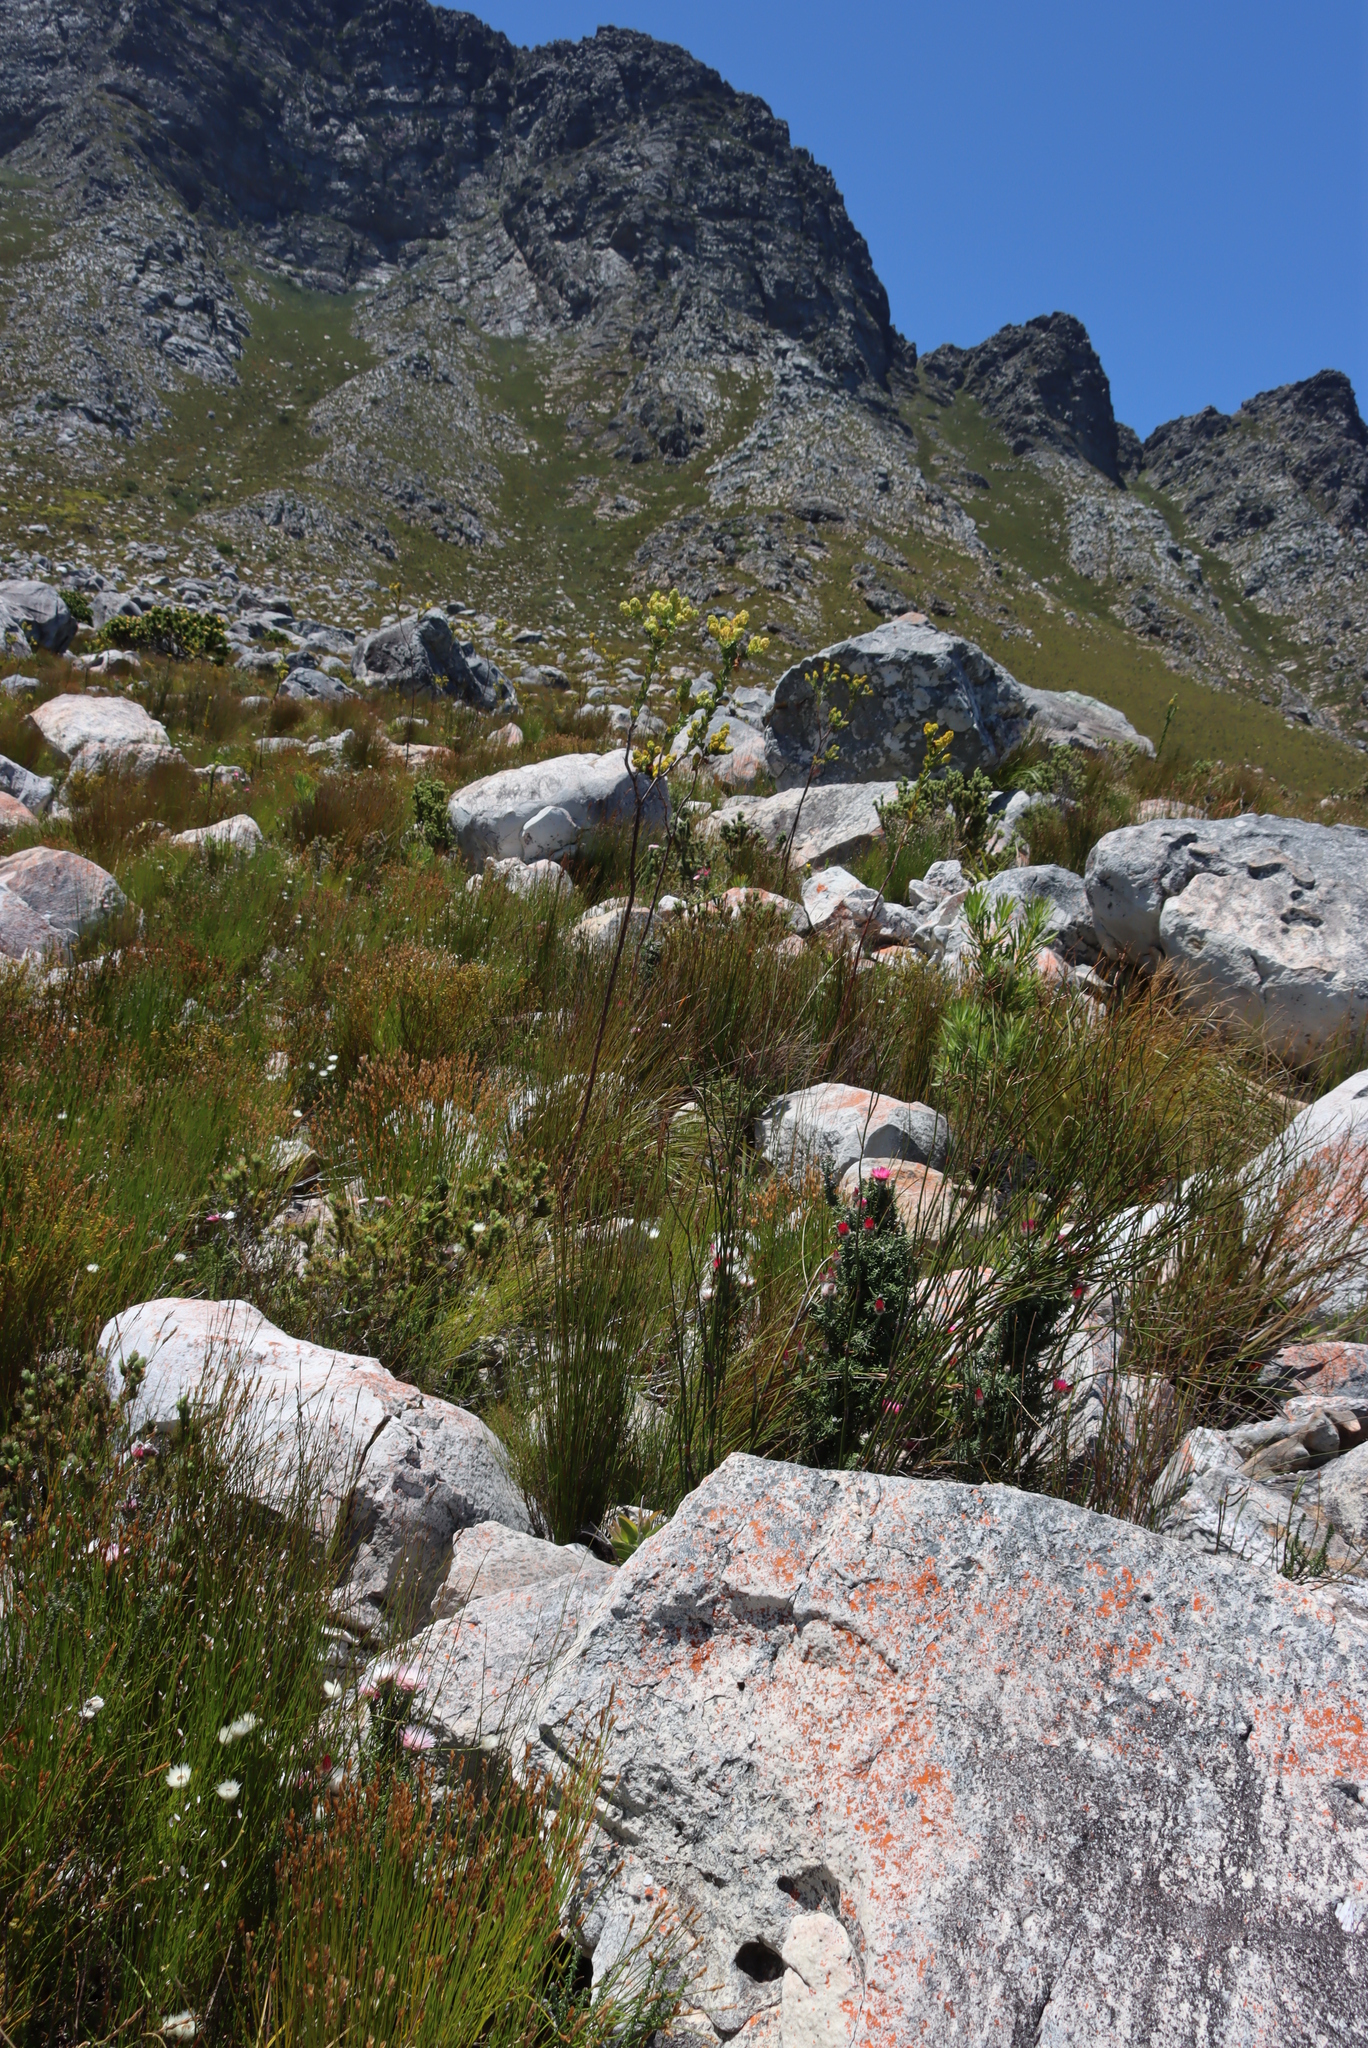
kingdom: Plantae
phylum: Tracheophyta
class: Magnoliopsida
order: Santalales
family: Thesiaceae
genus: Thesium
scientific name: Thesium euphorbioides
